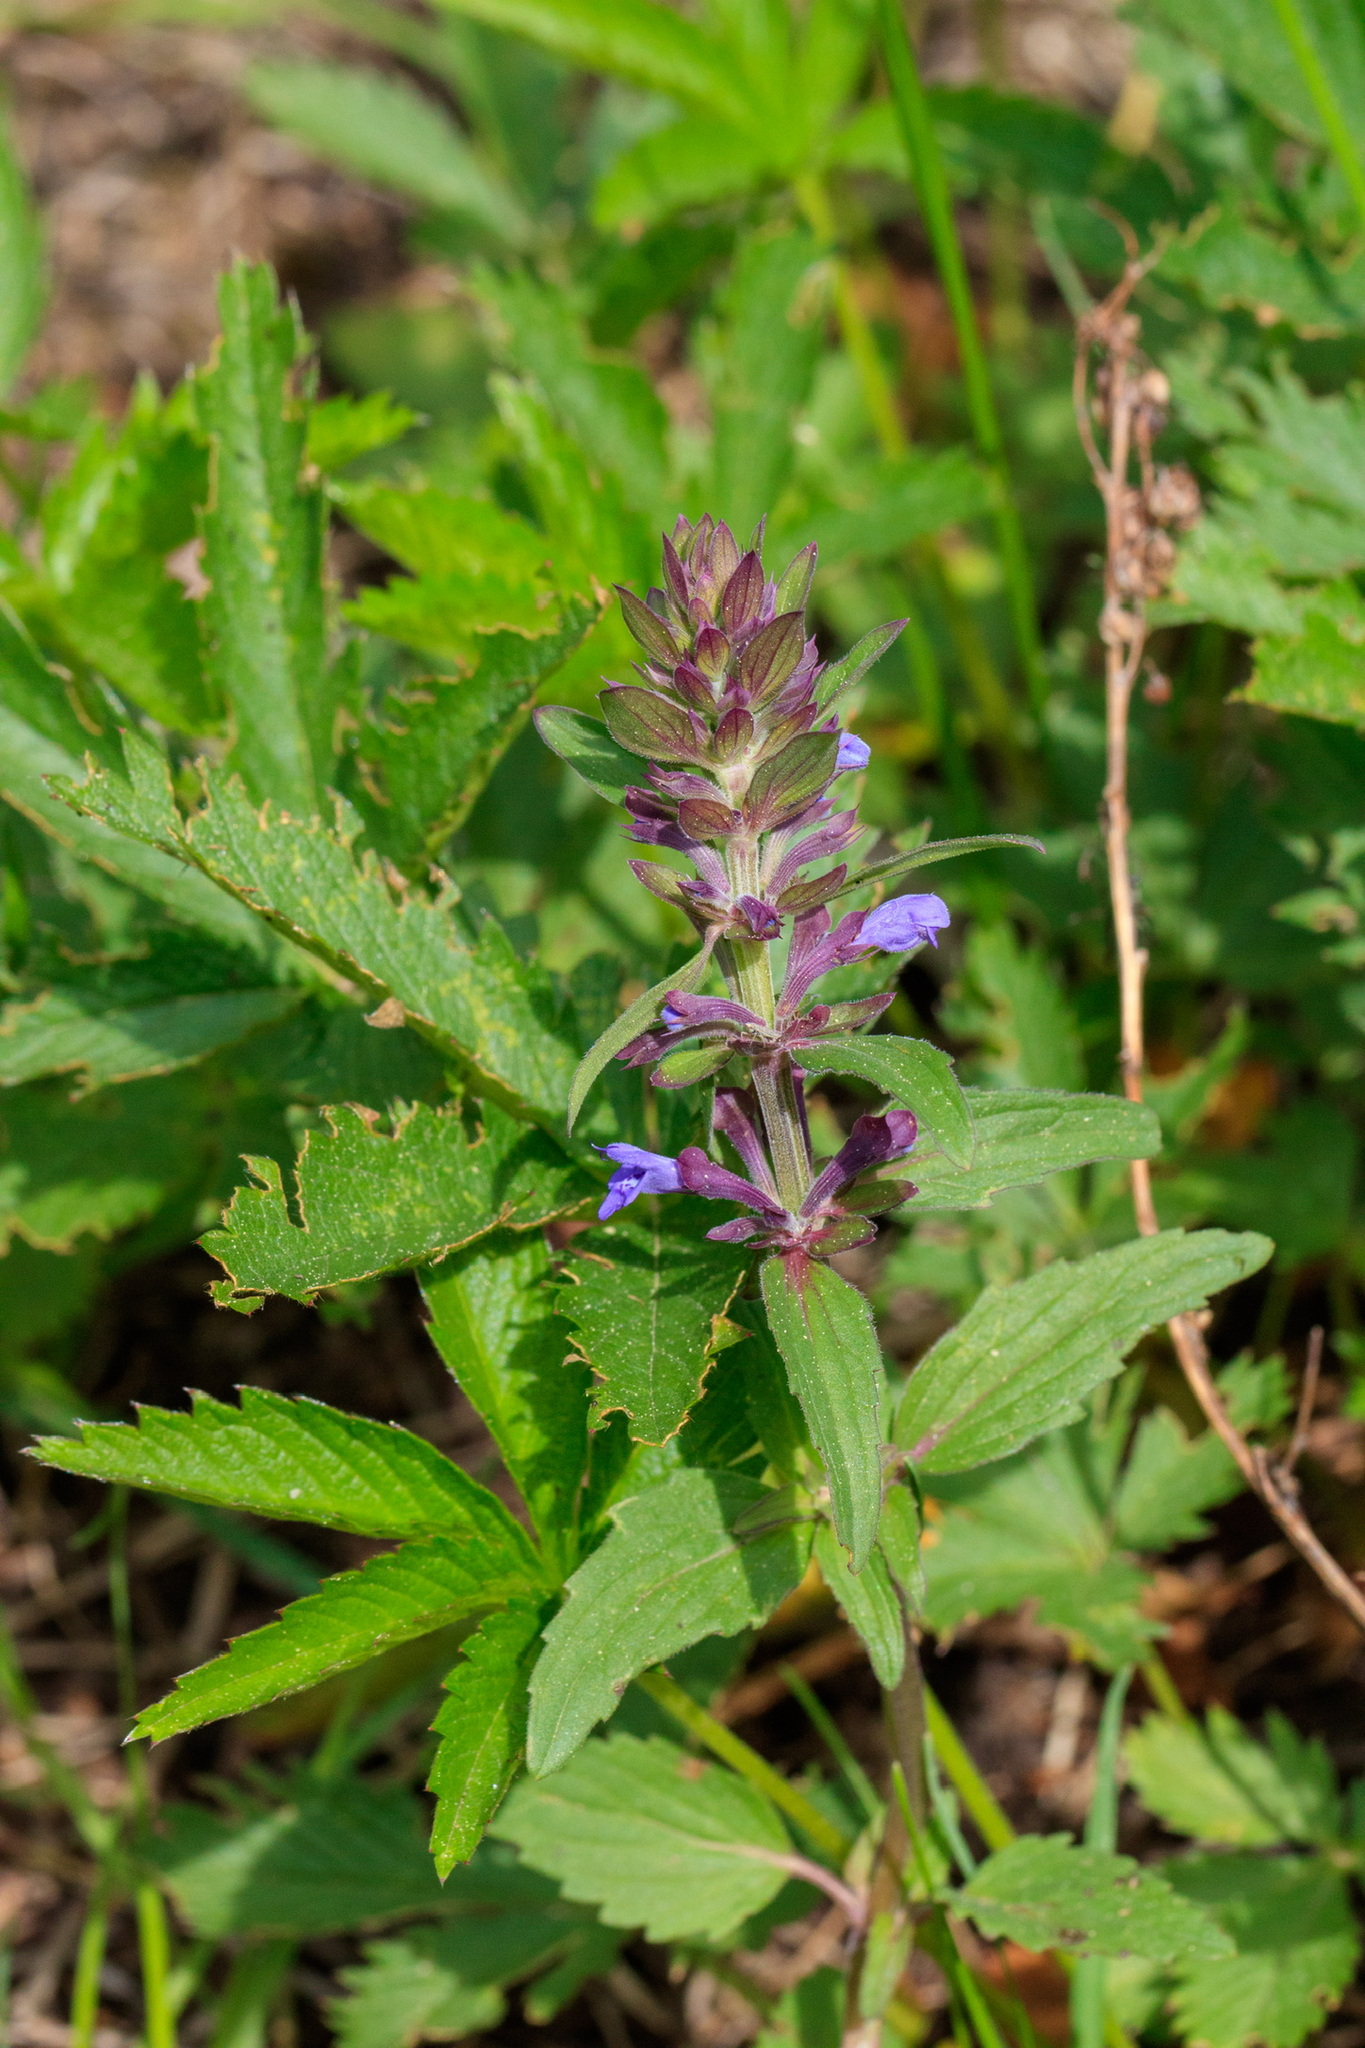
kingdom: Plantae
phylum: Tracheophyta
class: Magnoliopsida
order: Lamiales
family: Lamiaceae
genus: Dracocephalum
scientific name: Dracocephalum nutans
